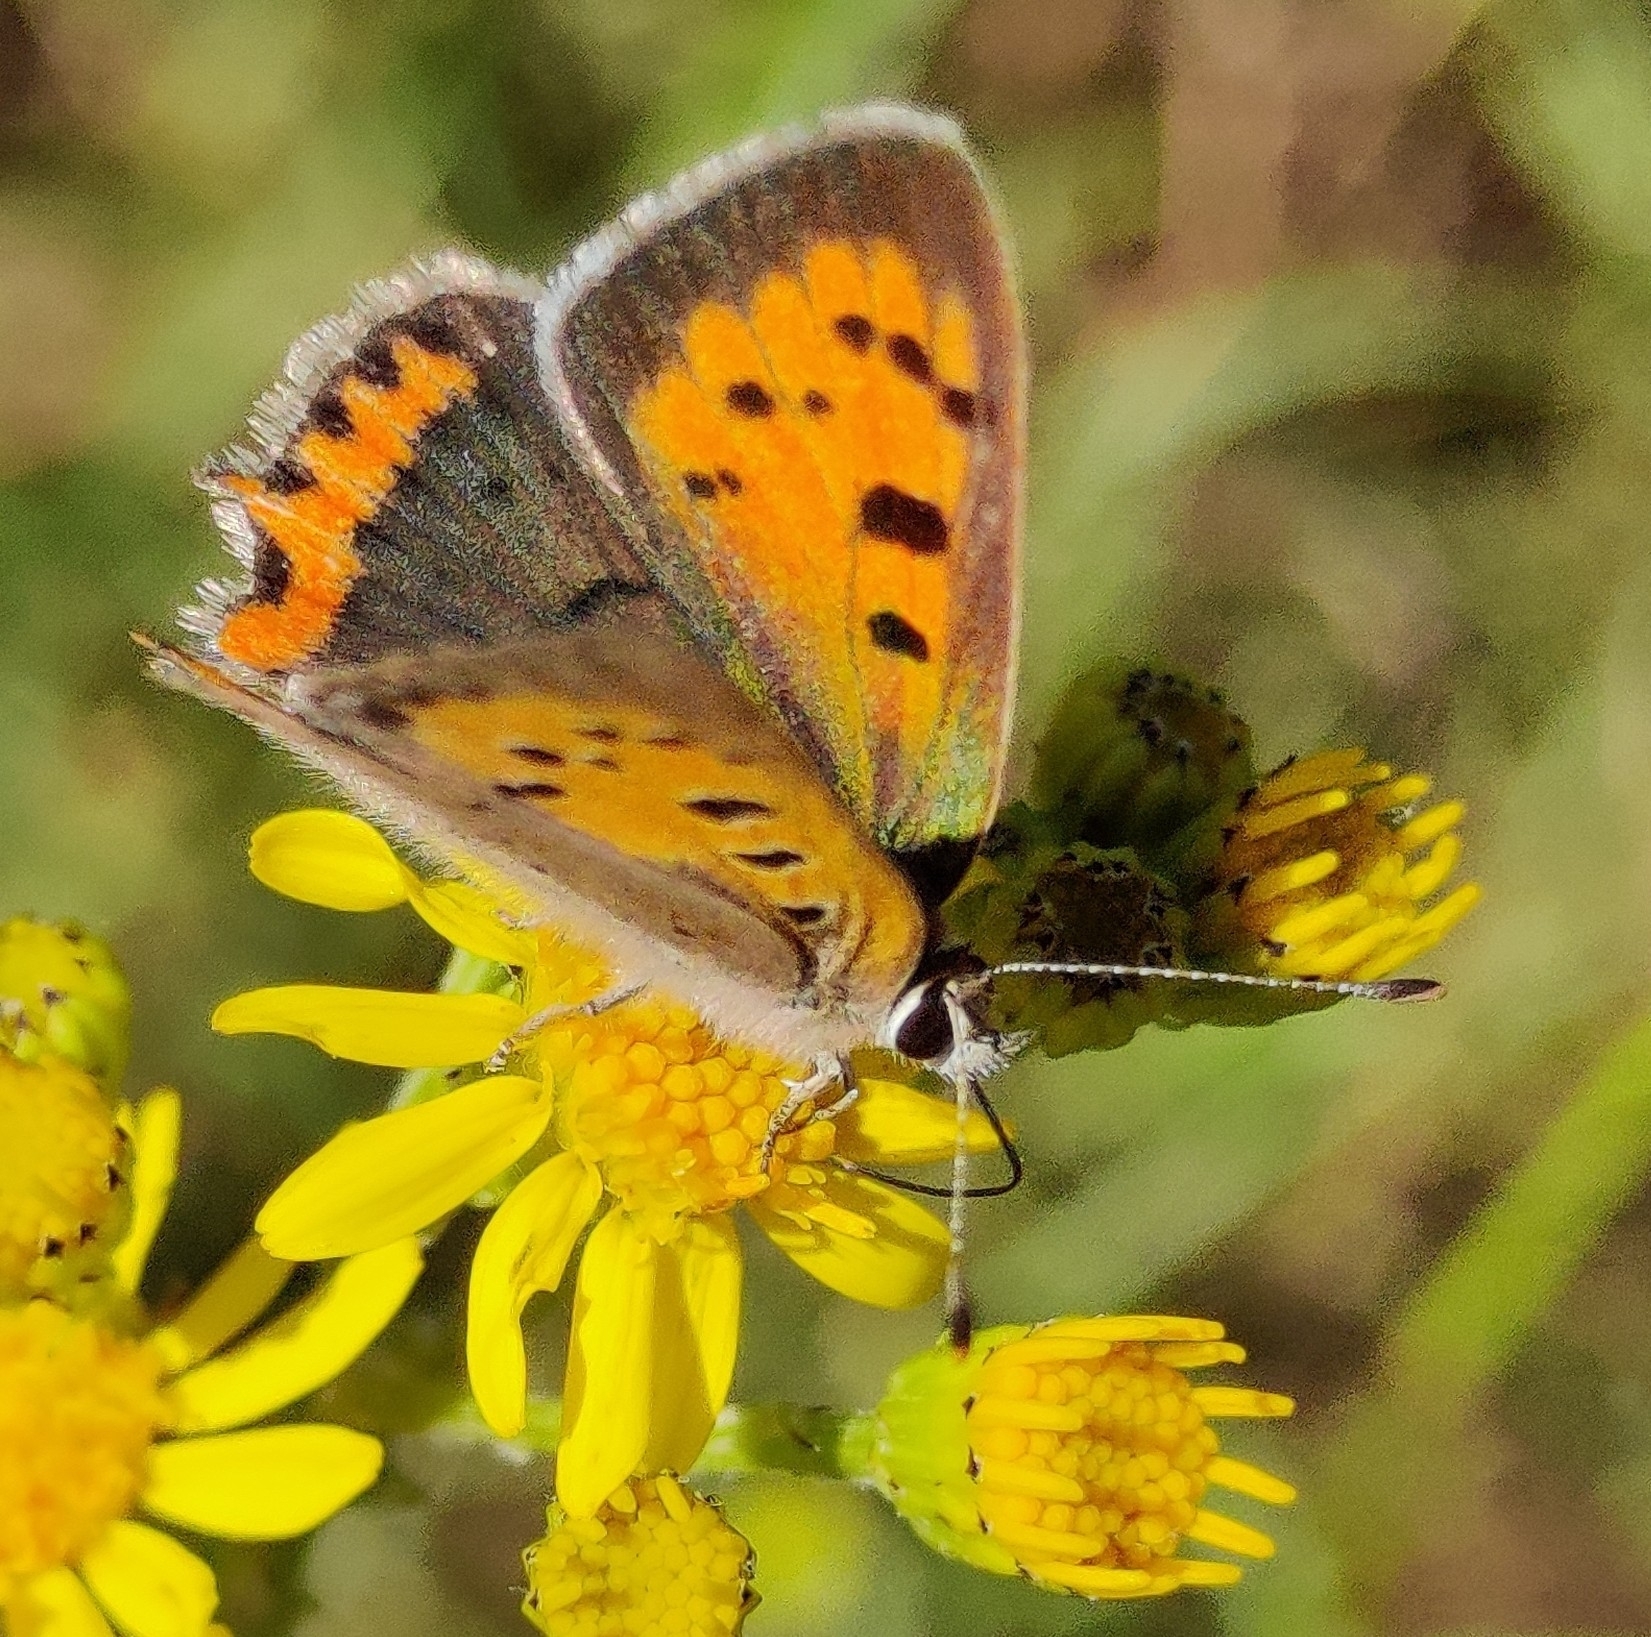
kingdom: Animalia
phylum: Arthropoda
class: Insecta
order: Lepidoptera
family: Lycaenidae
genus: Lycaena
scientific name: Lycaena phlaeas
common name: Small copper
